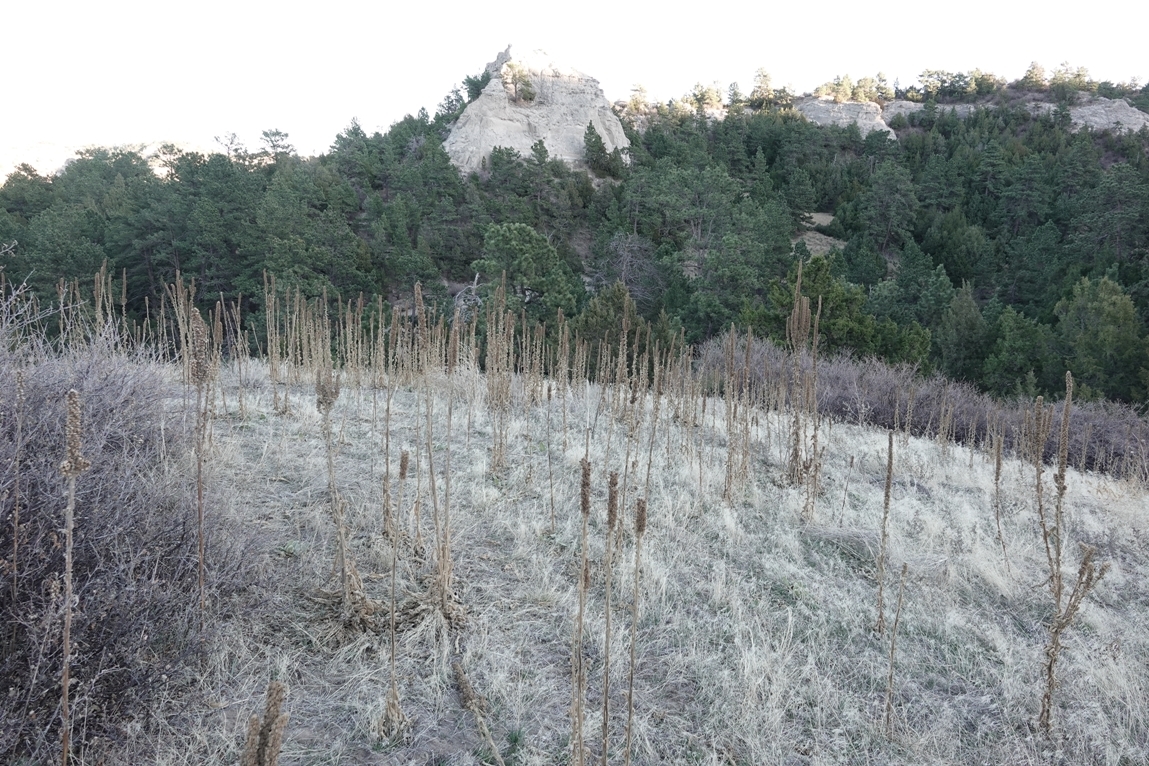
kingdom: Plantae
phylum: Tracheophyta
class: Magnoliopsida
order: Lamiales
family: Scrophulariaceae
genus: Verbascum
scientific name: Verbascum thapsus
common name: Common mullein
